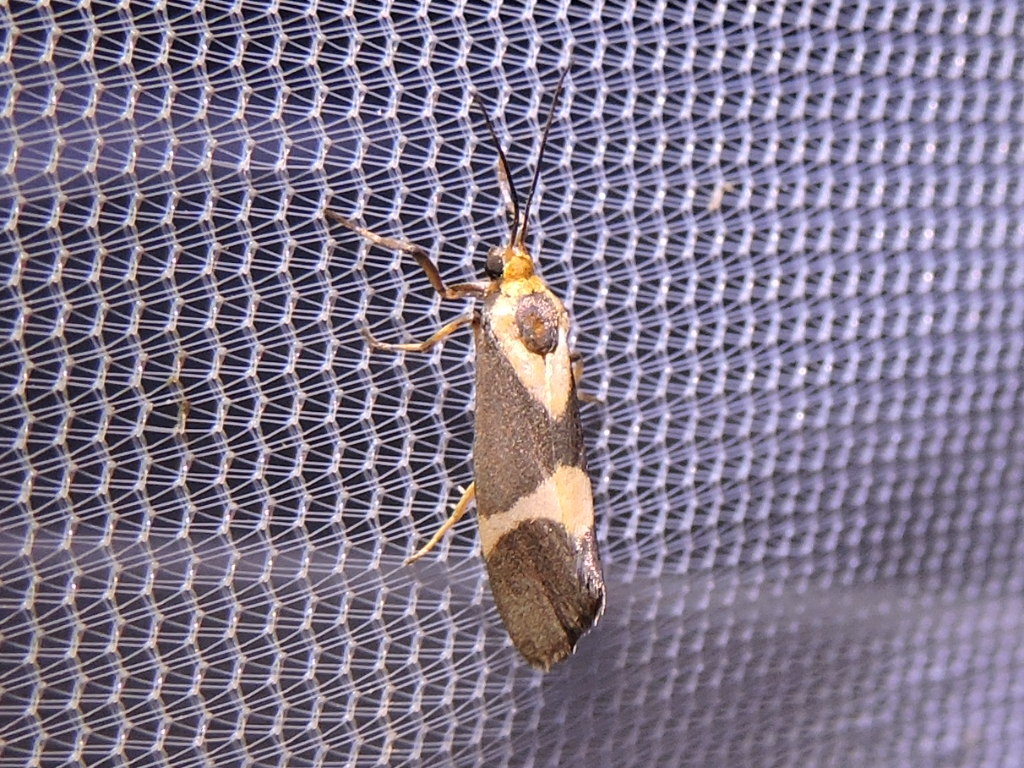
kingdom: Animalia
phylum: Arthropoda
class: Insecta
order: Lepidoptera
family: Erebidae
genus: Cisthene
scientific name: Cisthene subrufa
